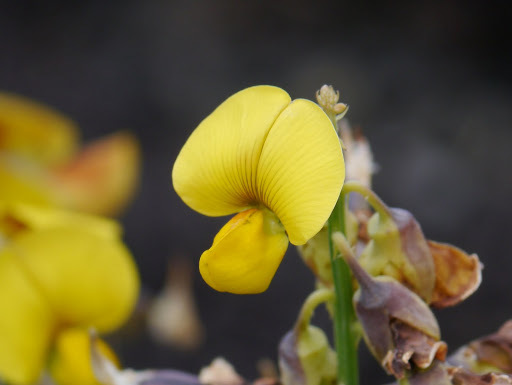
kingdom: Plantae
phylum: Tracheophyta
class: Magnoliopsida
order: Fabales
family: Fabaceae
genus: Crotalaria
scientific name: Crotalaria spectabilis
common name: Showy rattlebox
